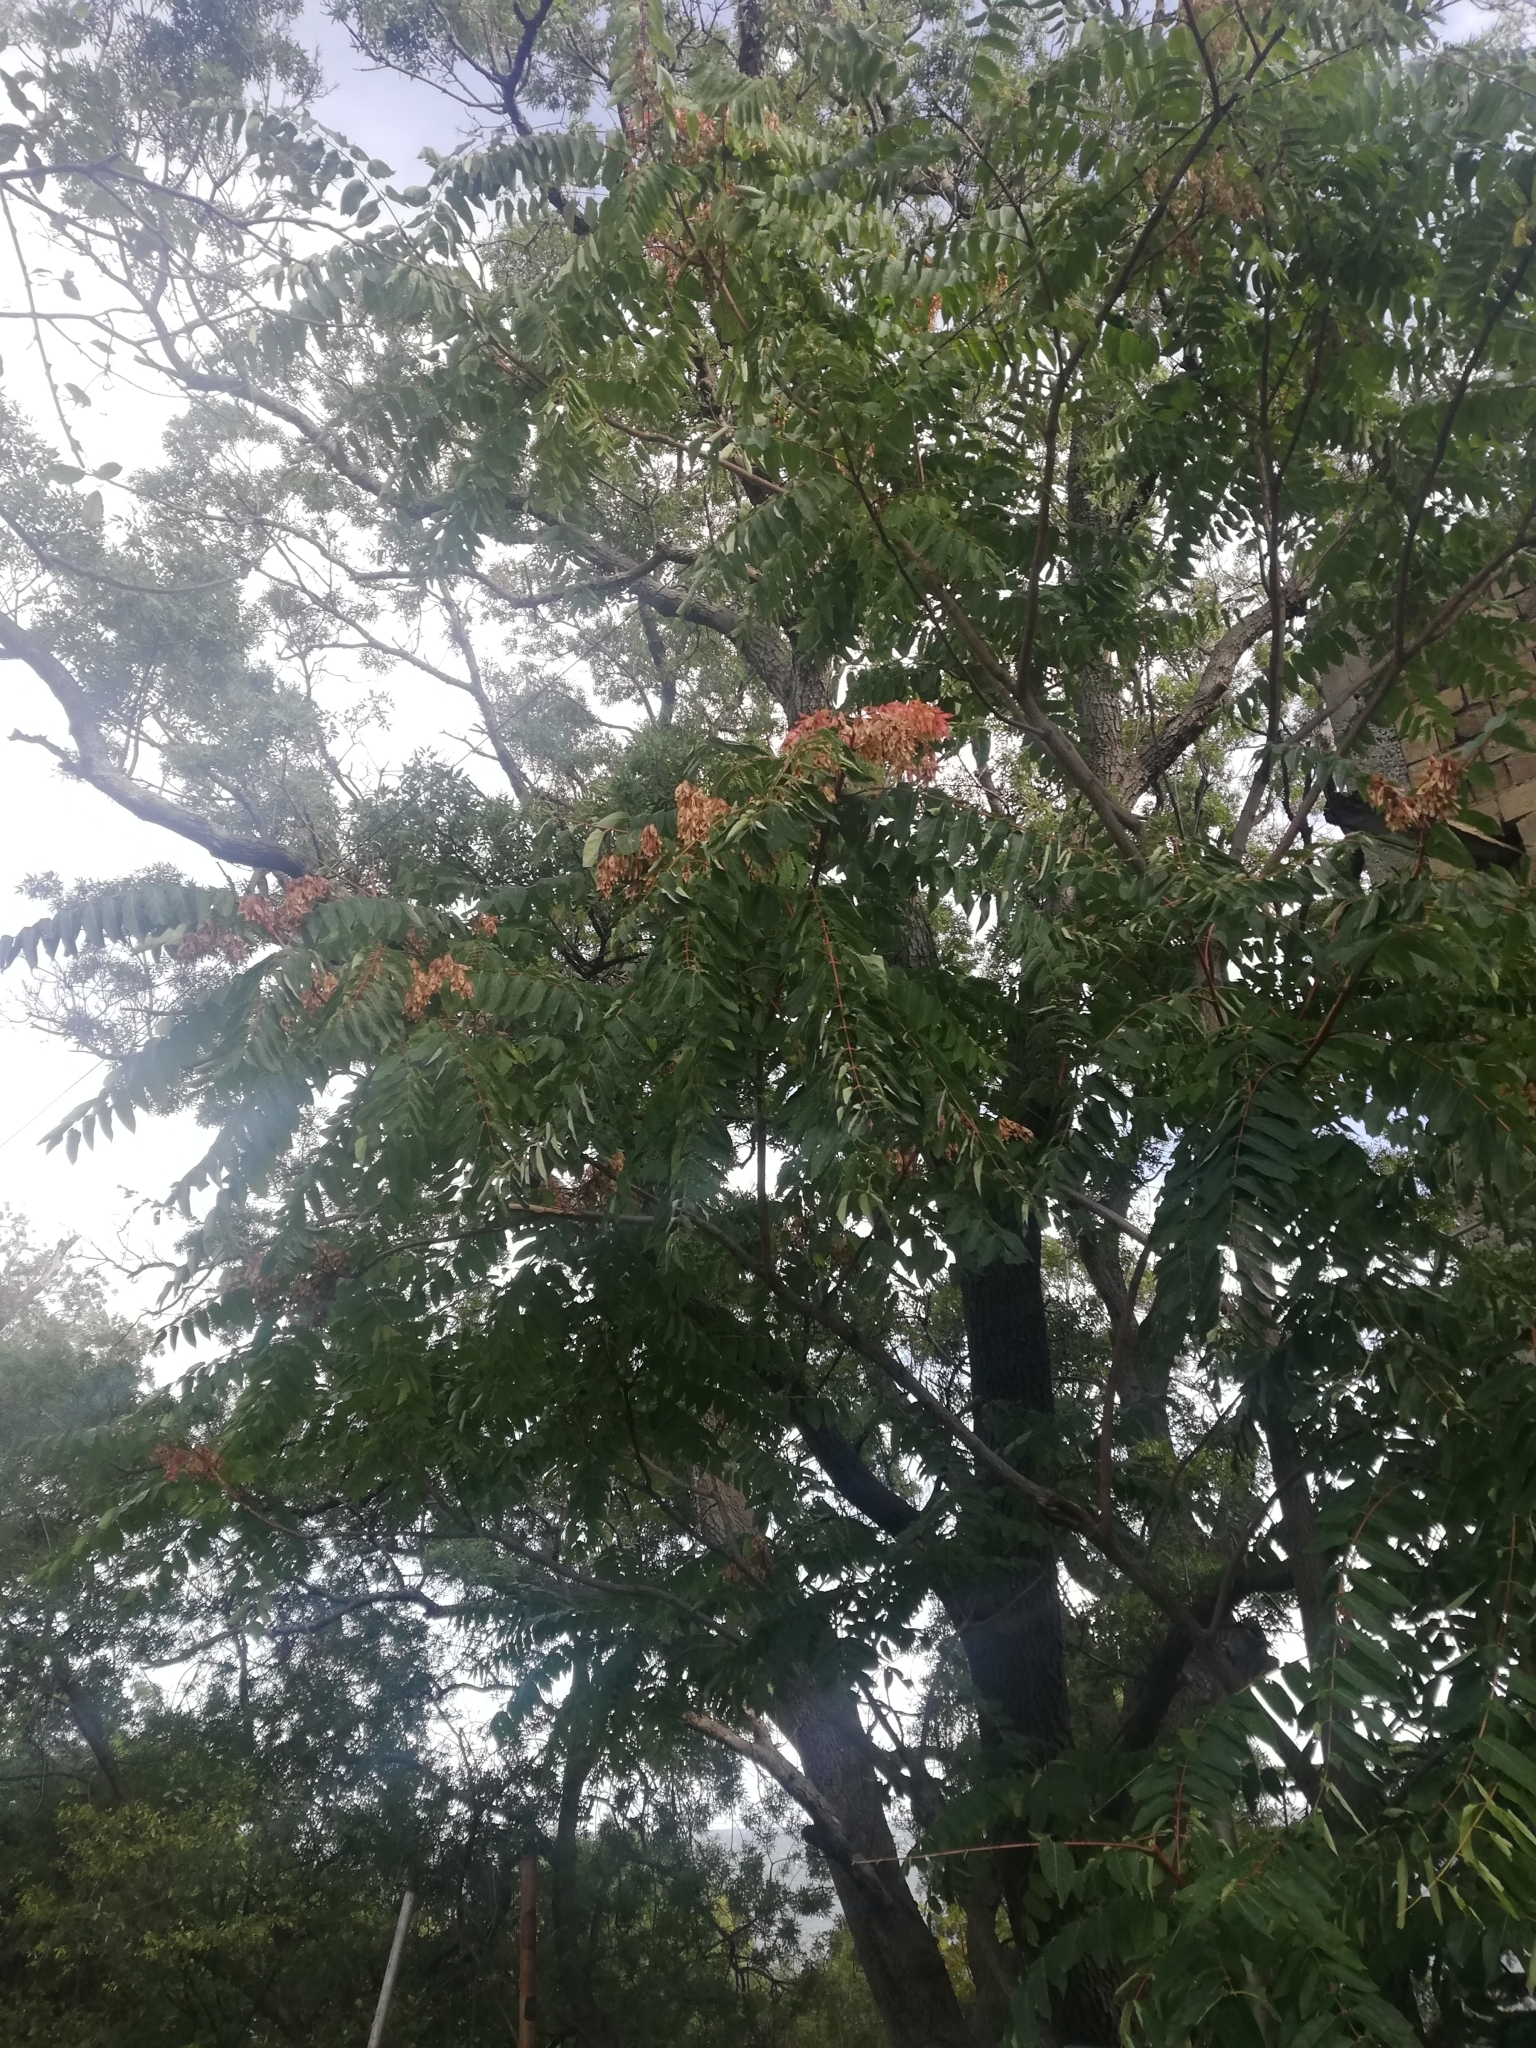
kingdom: Plantae
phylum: Tracheophyta
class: Magnoliopsida
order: Sapindales
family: Simaroubaceae
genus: Ailanthus
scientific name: Ailanthus altissima
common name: Tree-of-heaven
